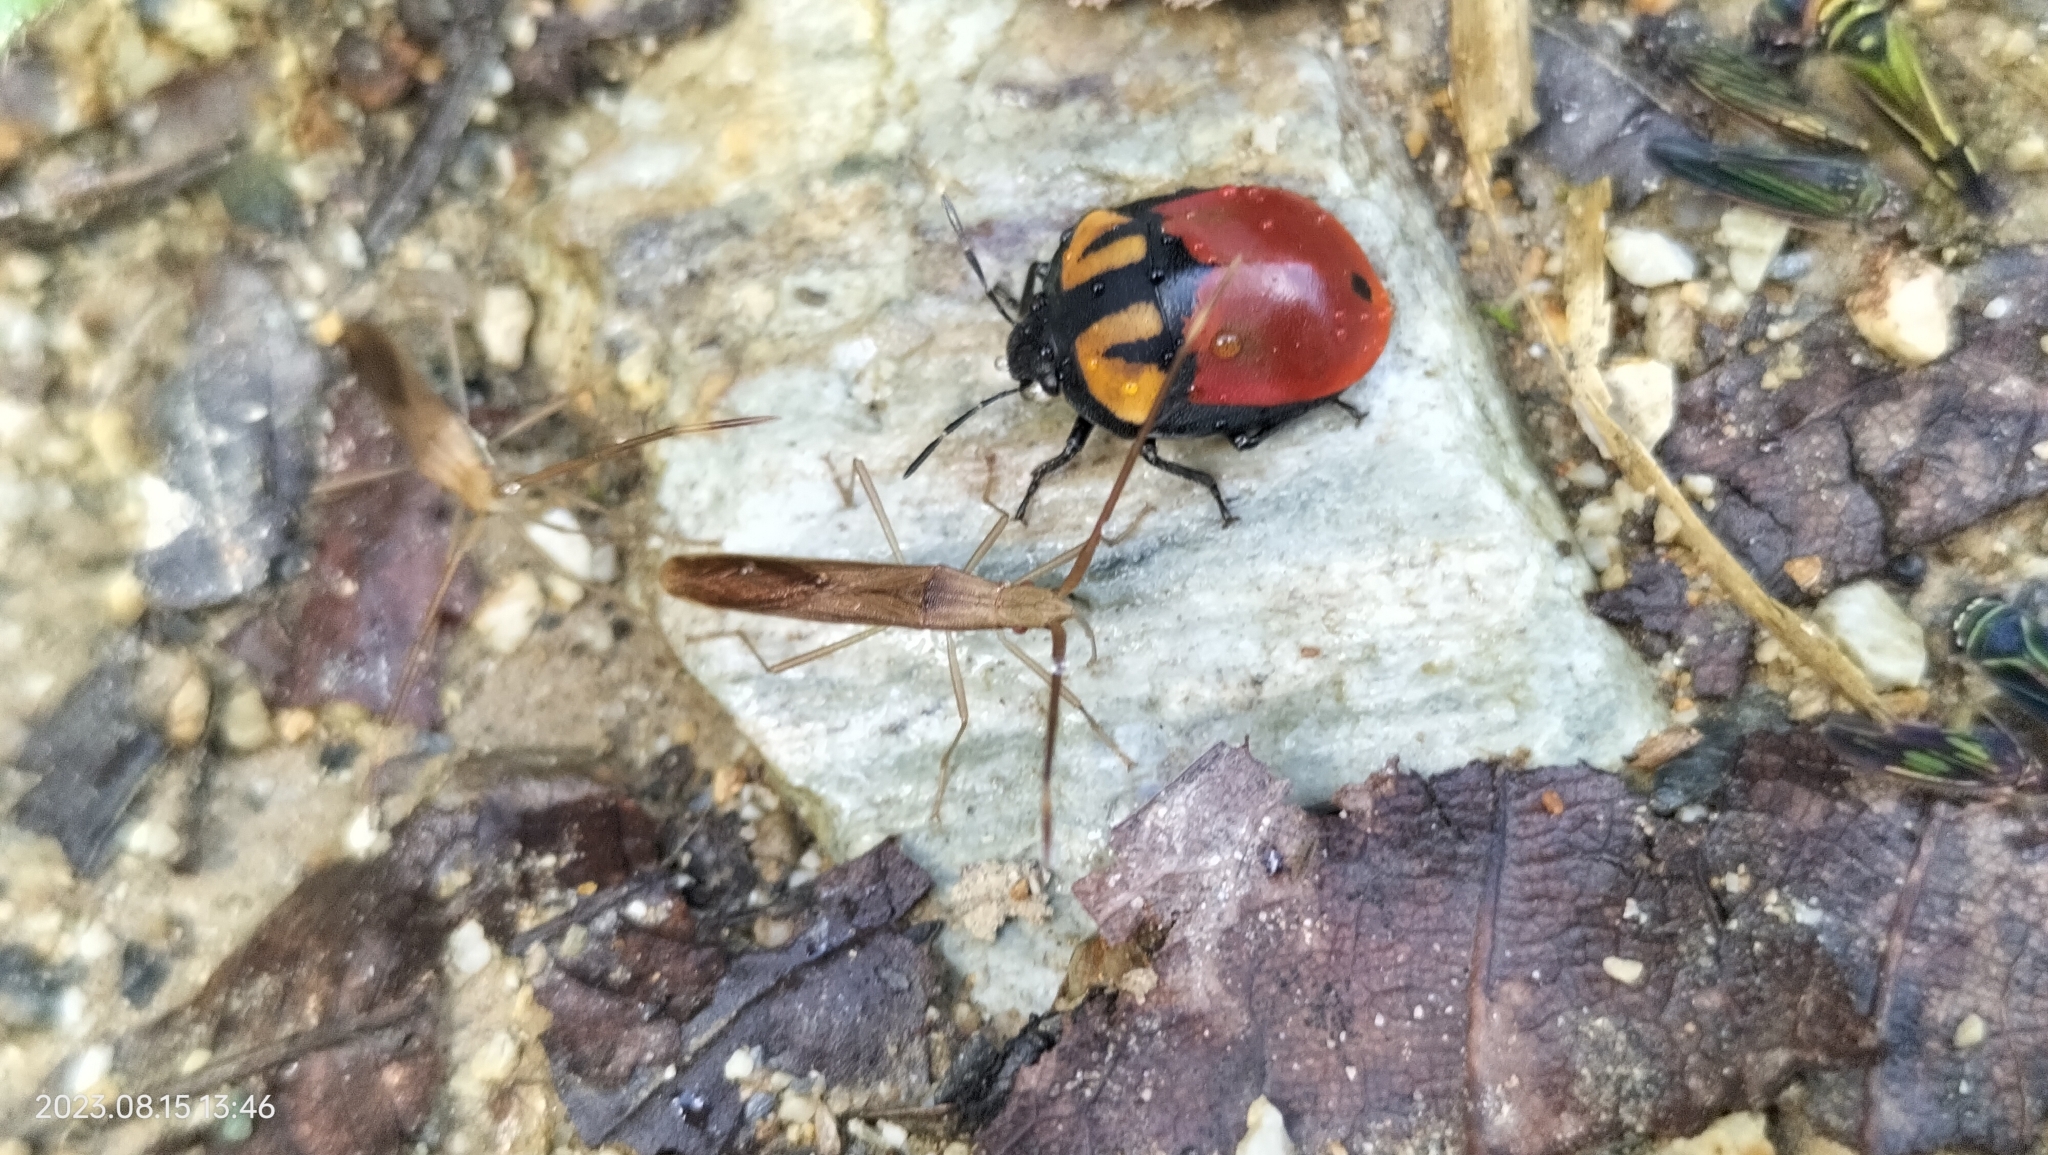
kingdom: Animalia
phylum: Arthropoda
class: Insecta
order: Hemiptera
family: Scutelleridae
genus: Polytes
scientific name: Polytes
